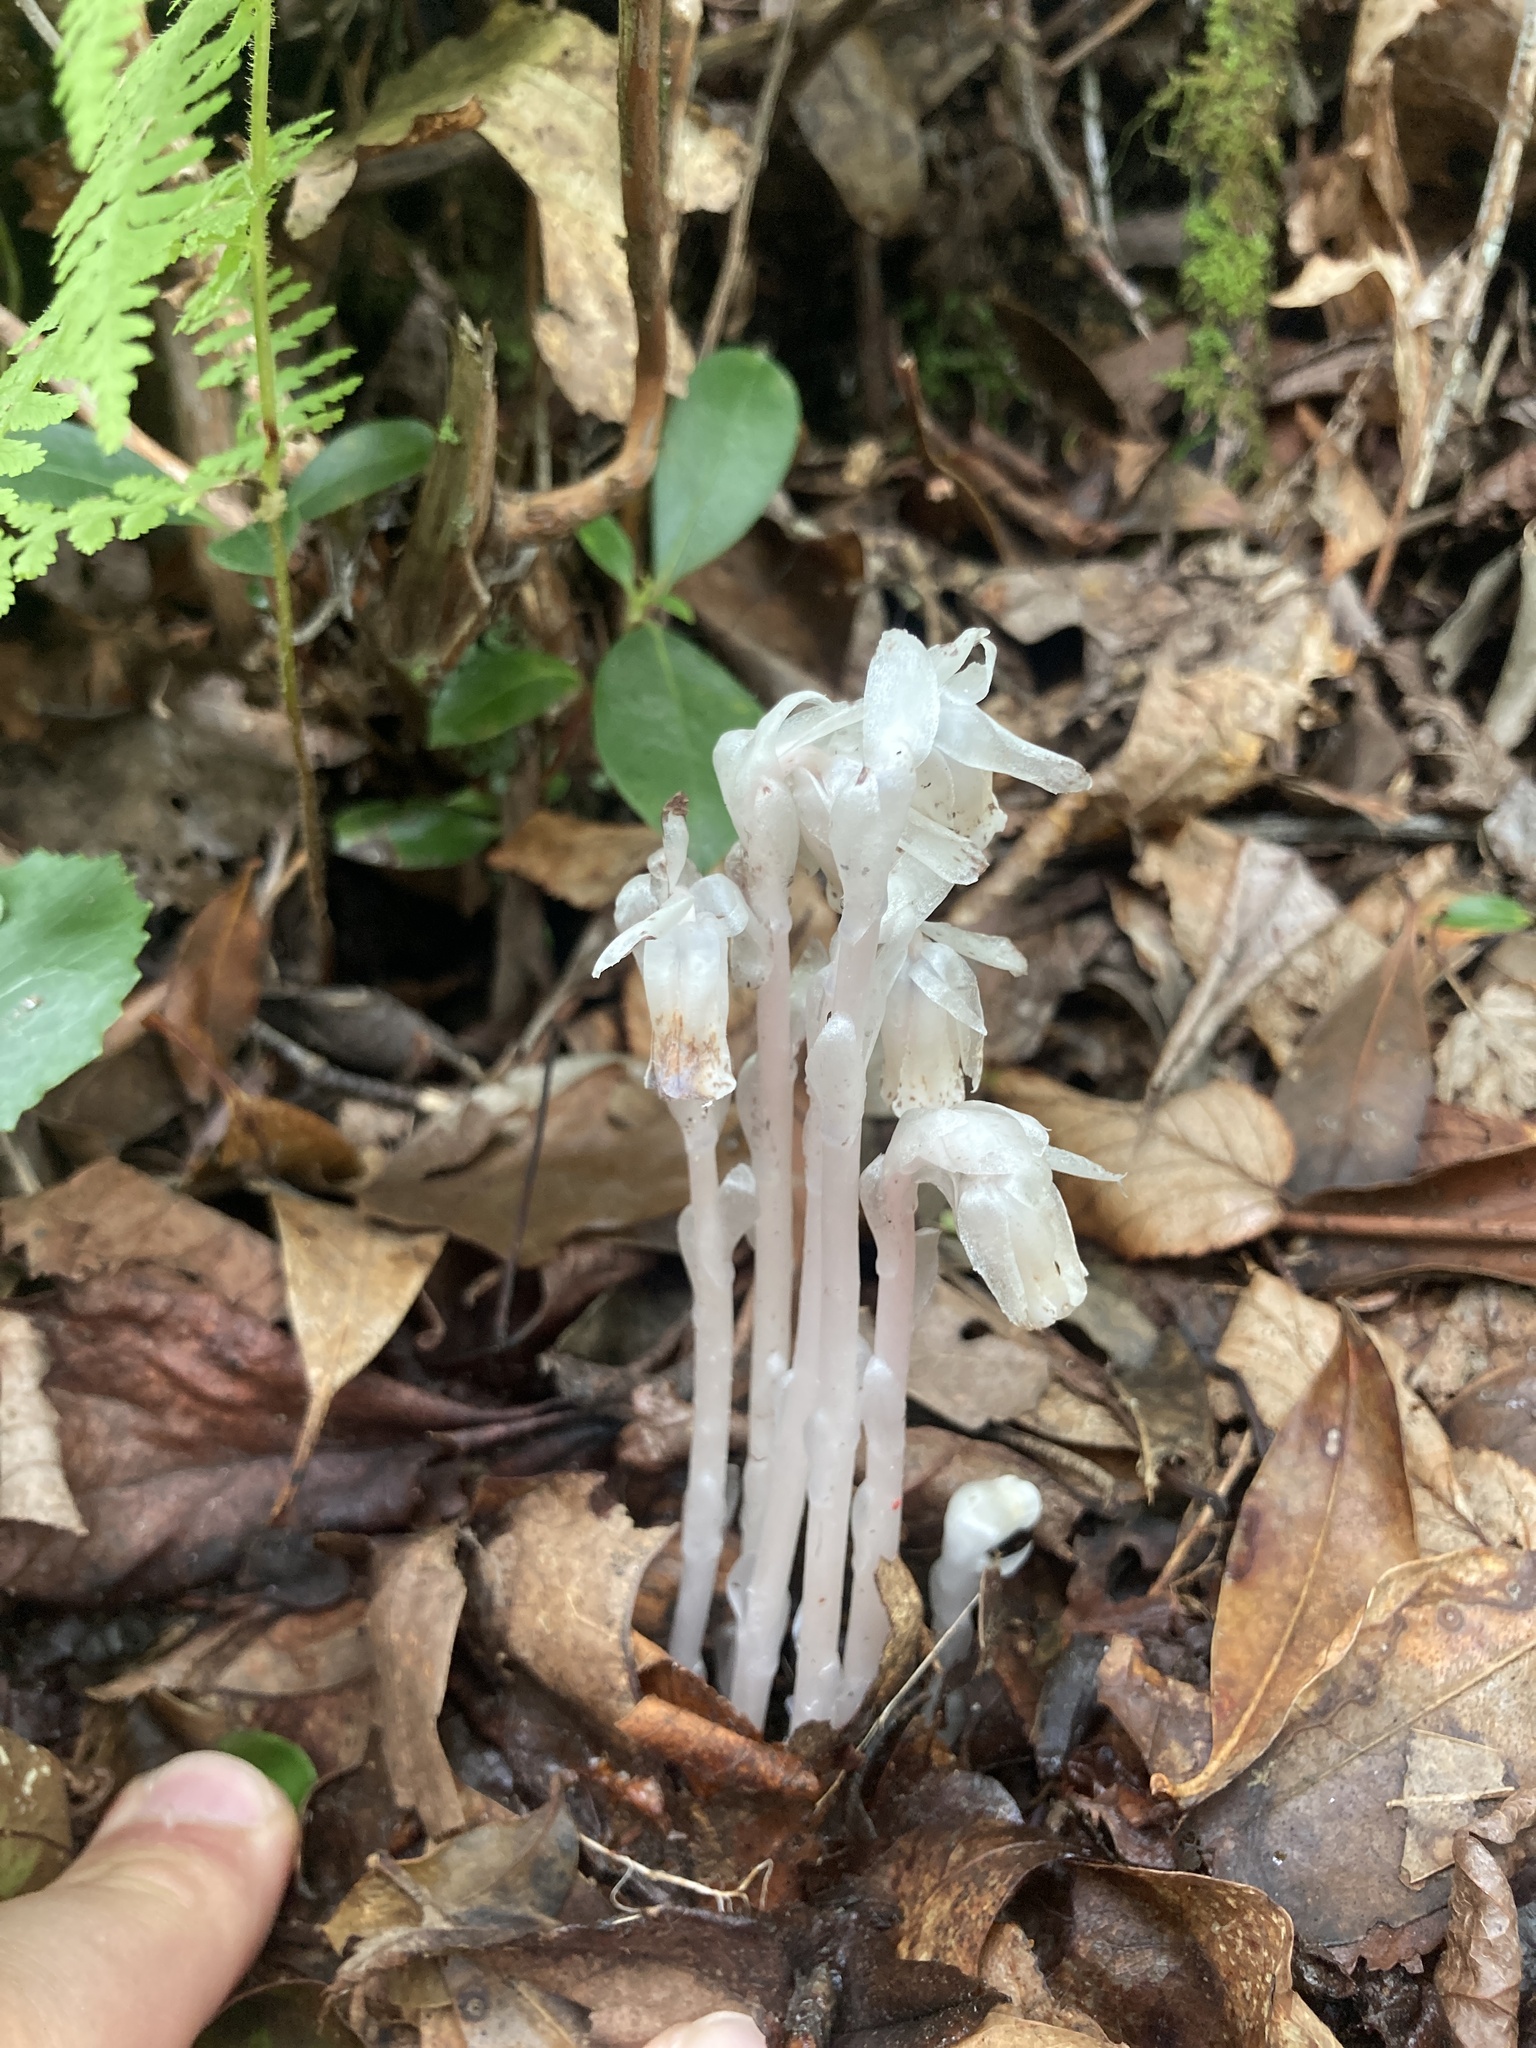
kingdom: Plantae
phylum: Tracheophyta
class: Magnoliopsida
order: Ericales
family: Ericaceae
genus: Monotropa
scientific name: Monotropa uniflora
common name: Convulsion root
